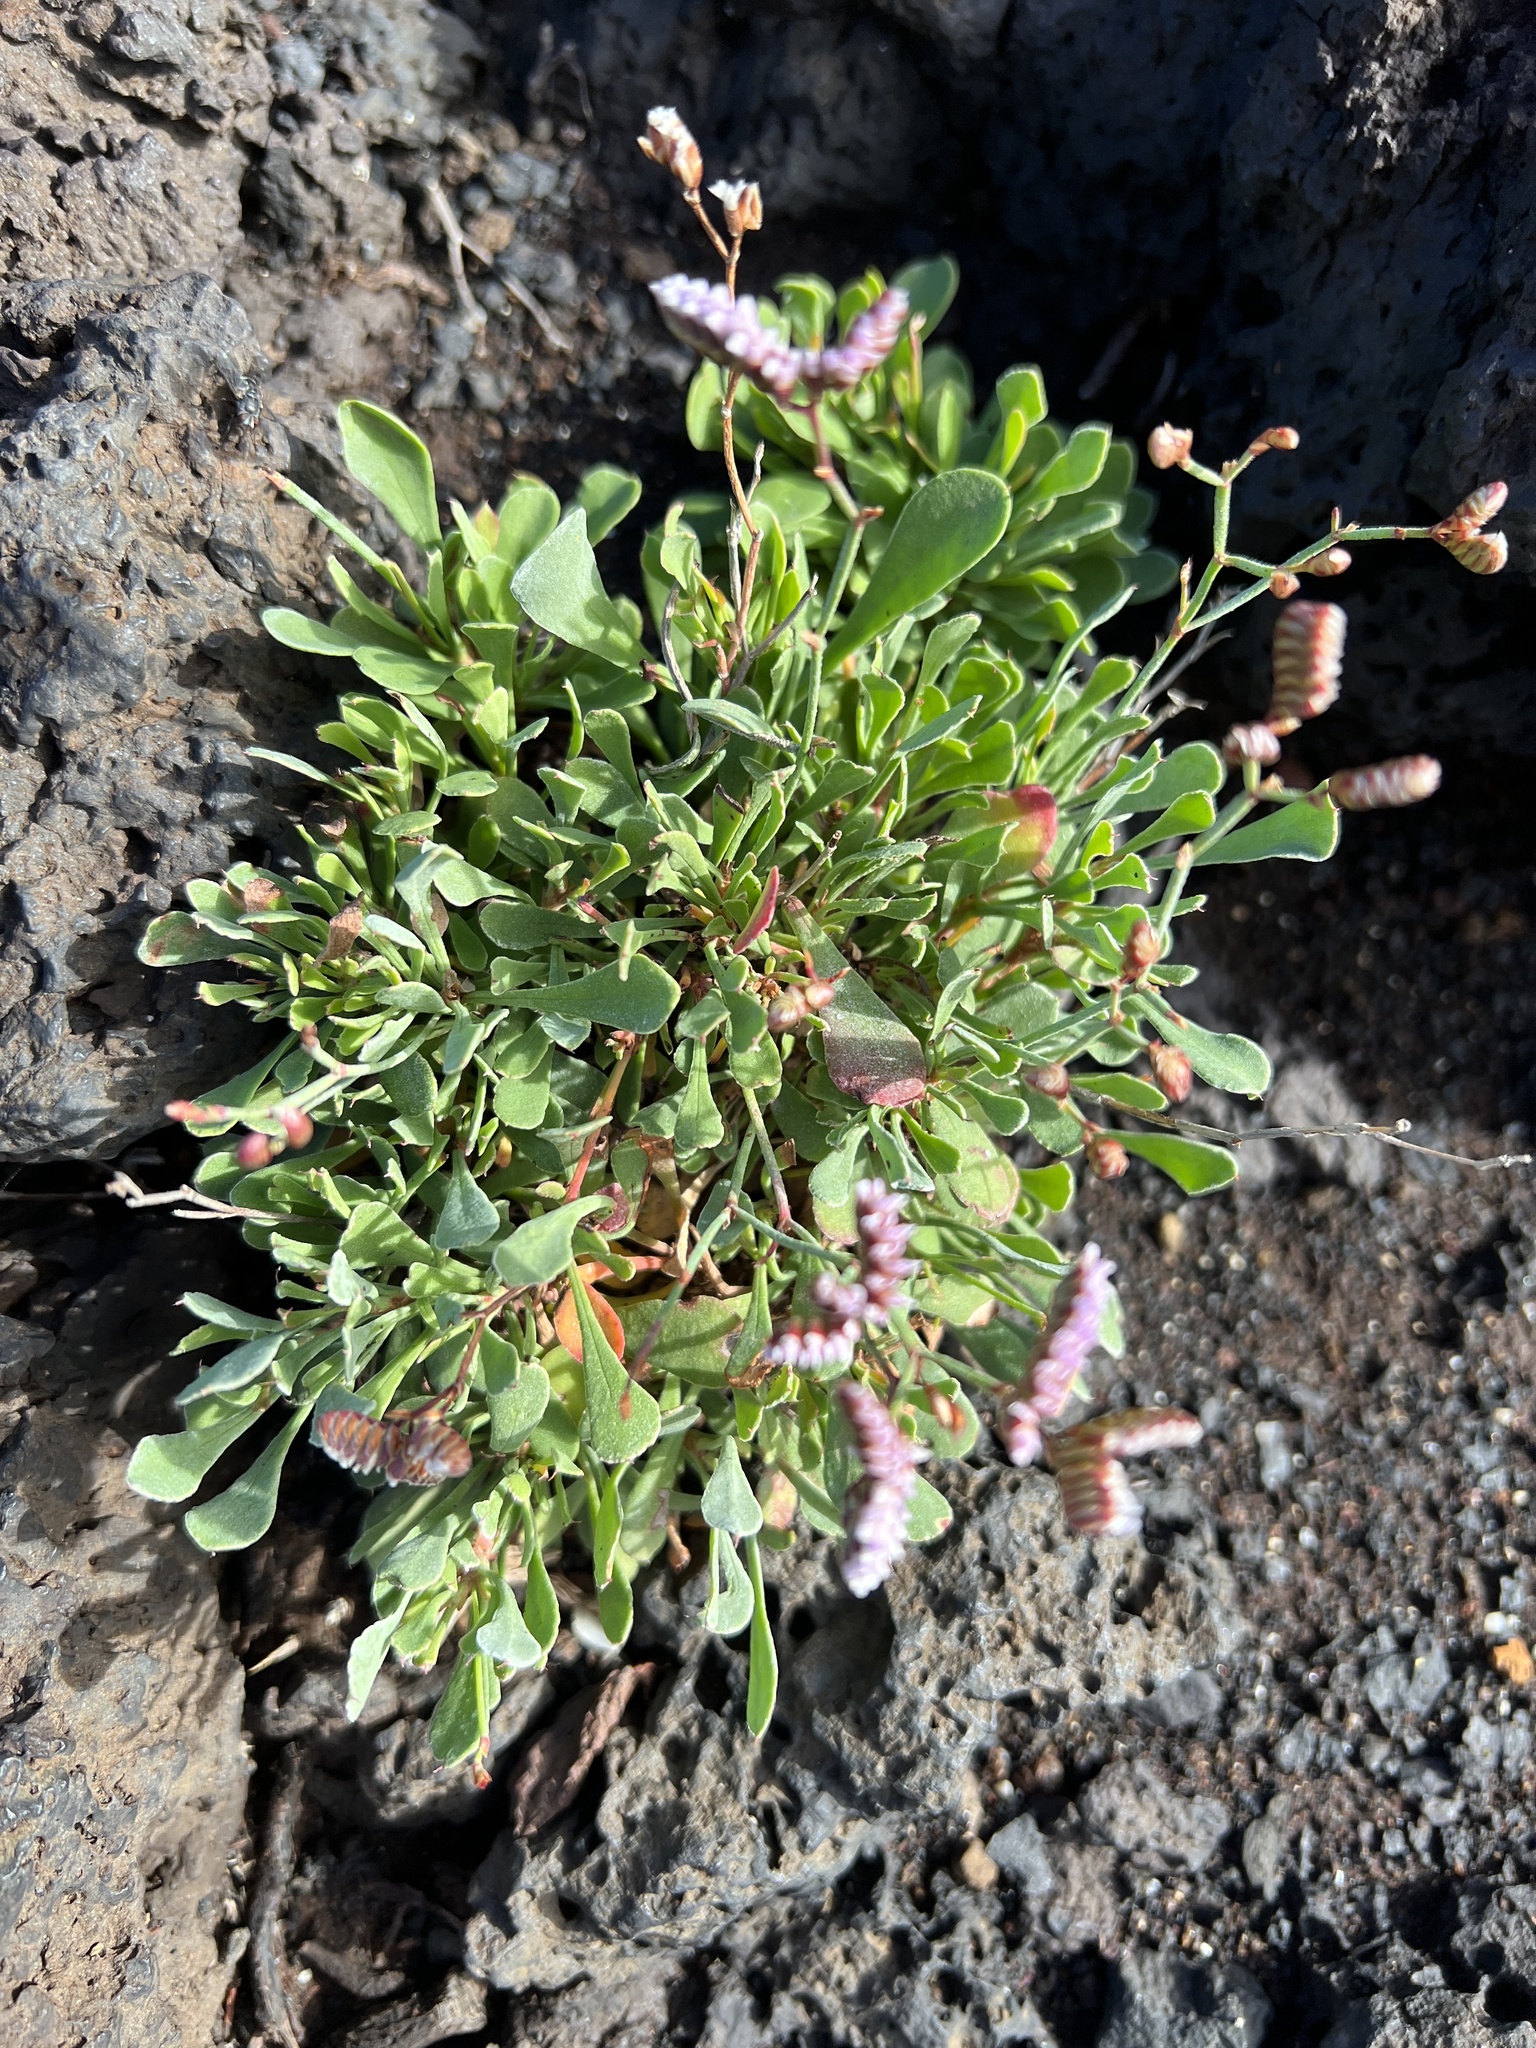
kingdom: Plantae
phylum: Tracheophyta
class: Magnoliopsida
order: Caryophyllales
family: Plumbaginaceae
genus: Limonium
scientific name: Limonium pectinatum
